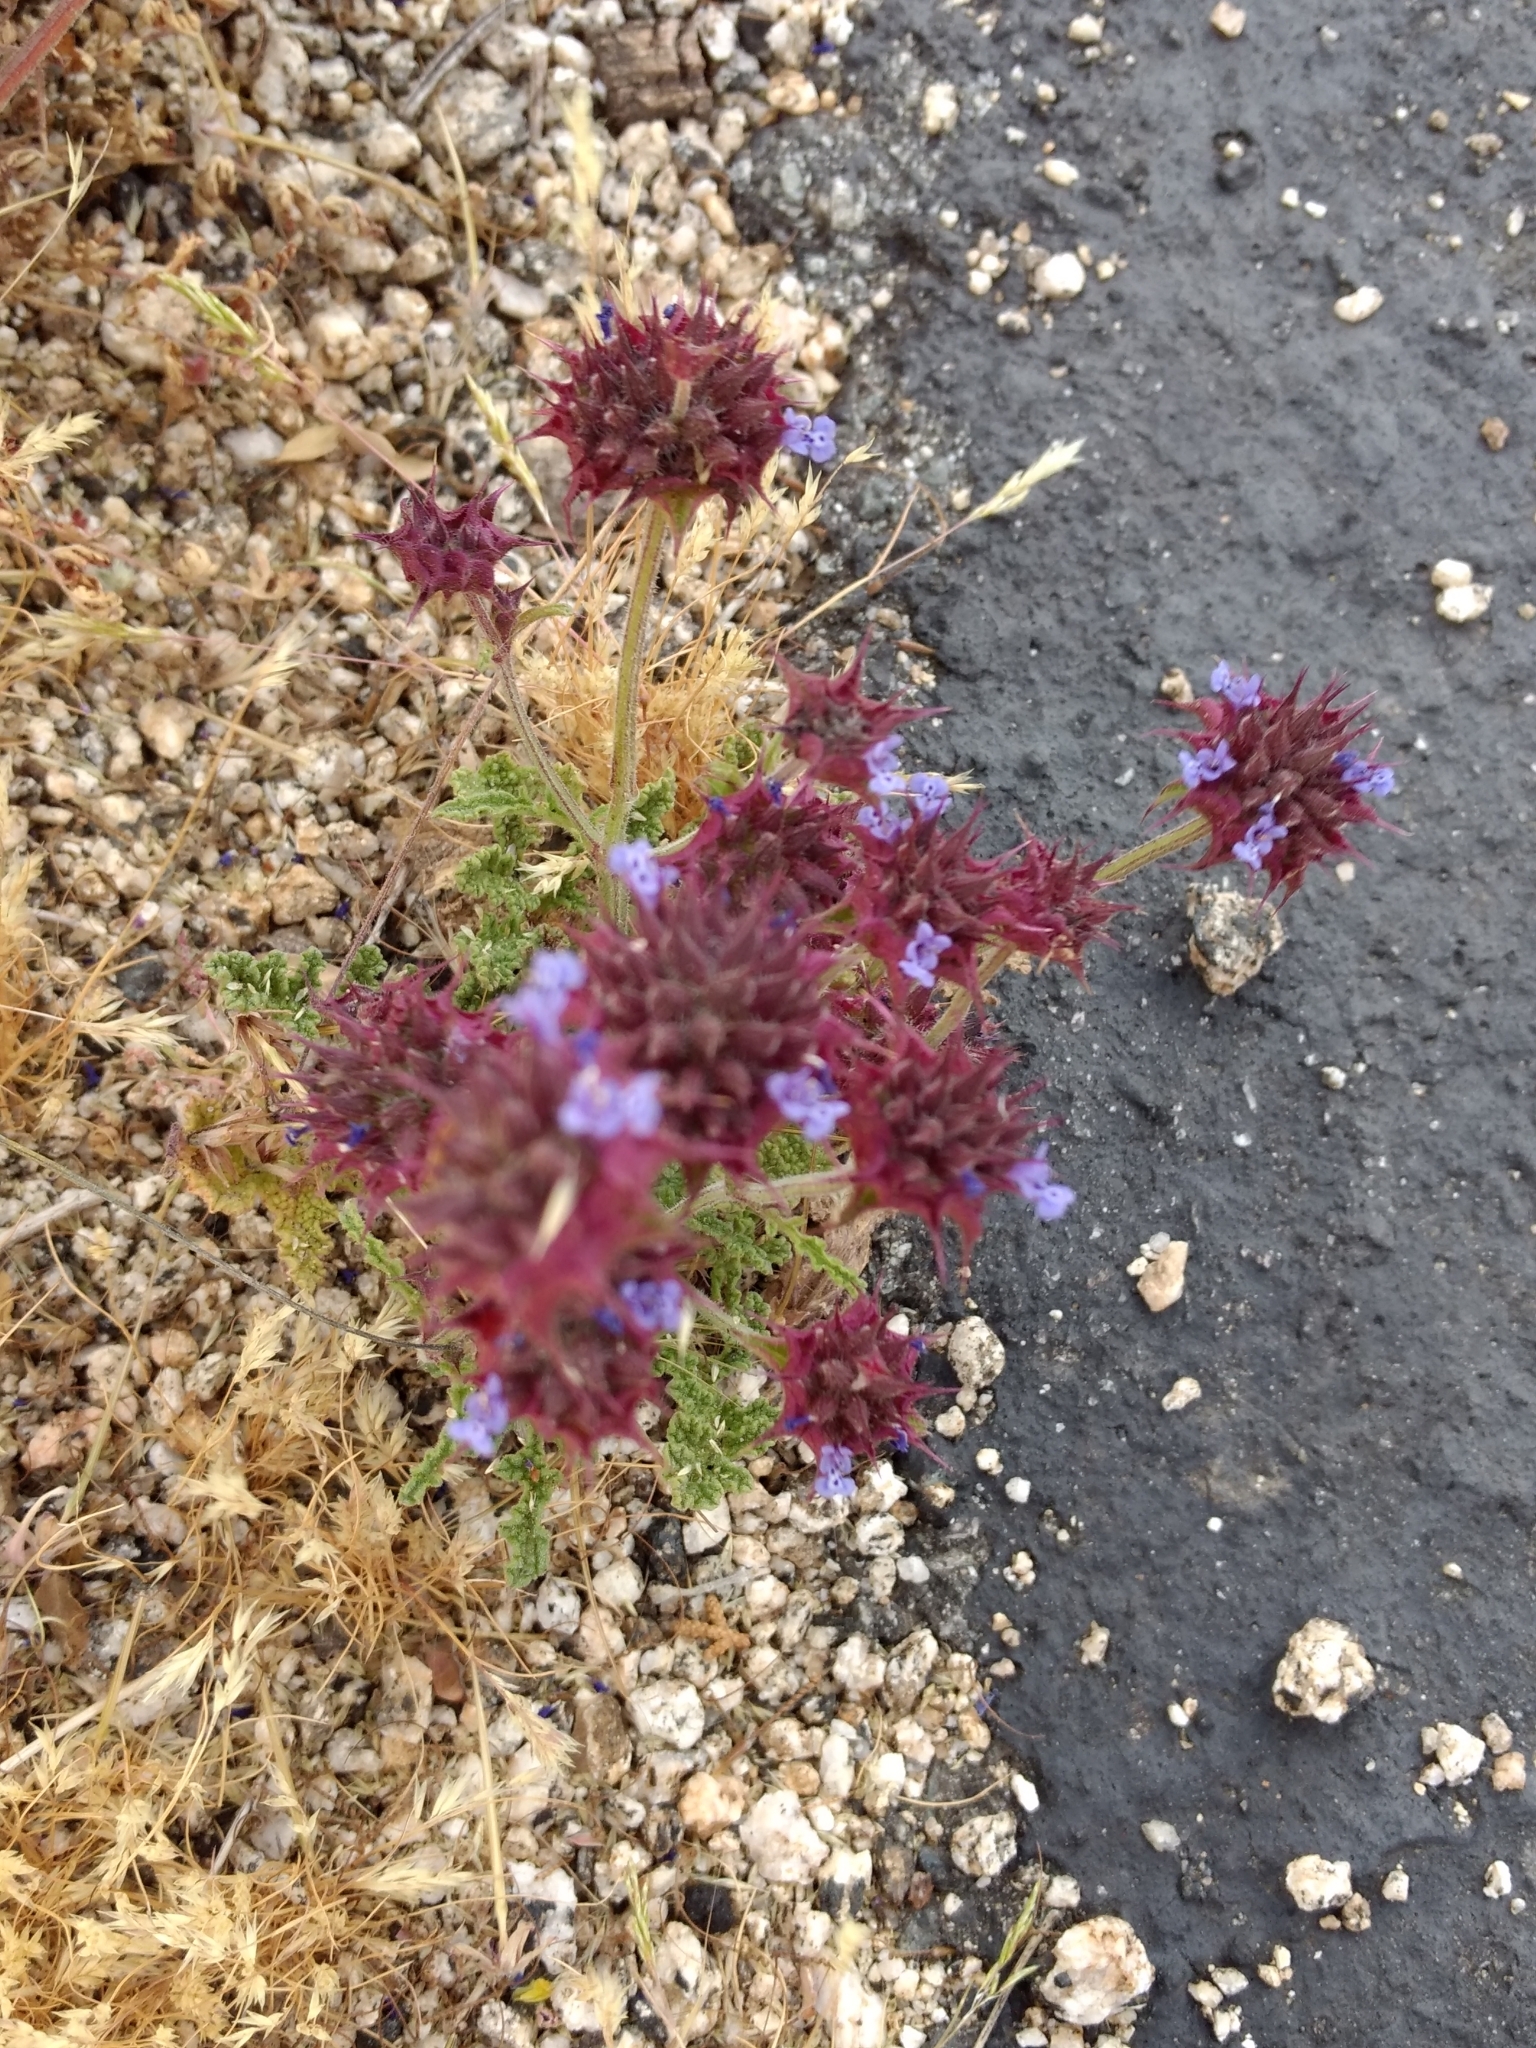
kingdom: Plantae
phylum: Tracheophyta
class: Magnoliopsida
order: Lamiales
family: Lamiaceae
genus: Salvia
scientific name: Salvia columbariae
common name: Chia
